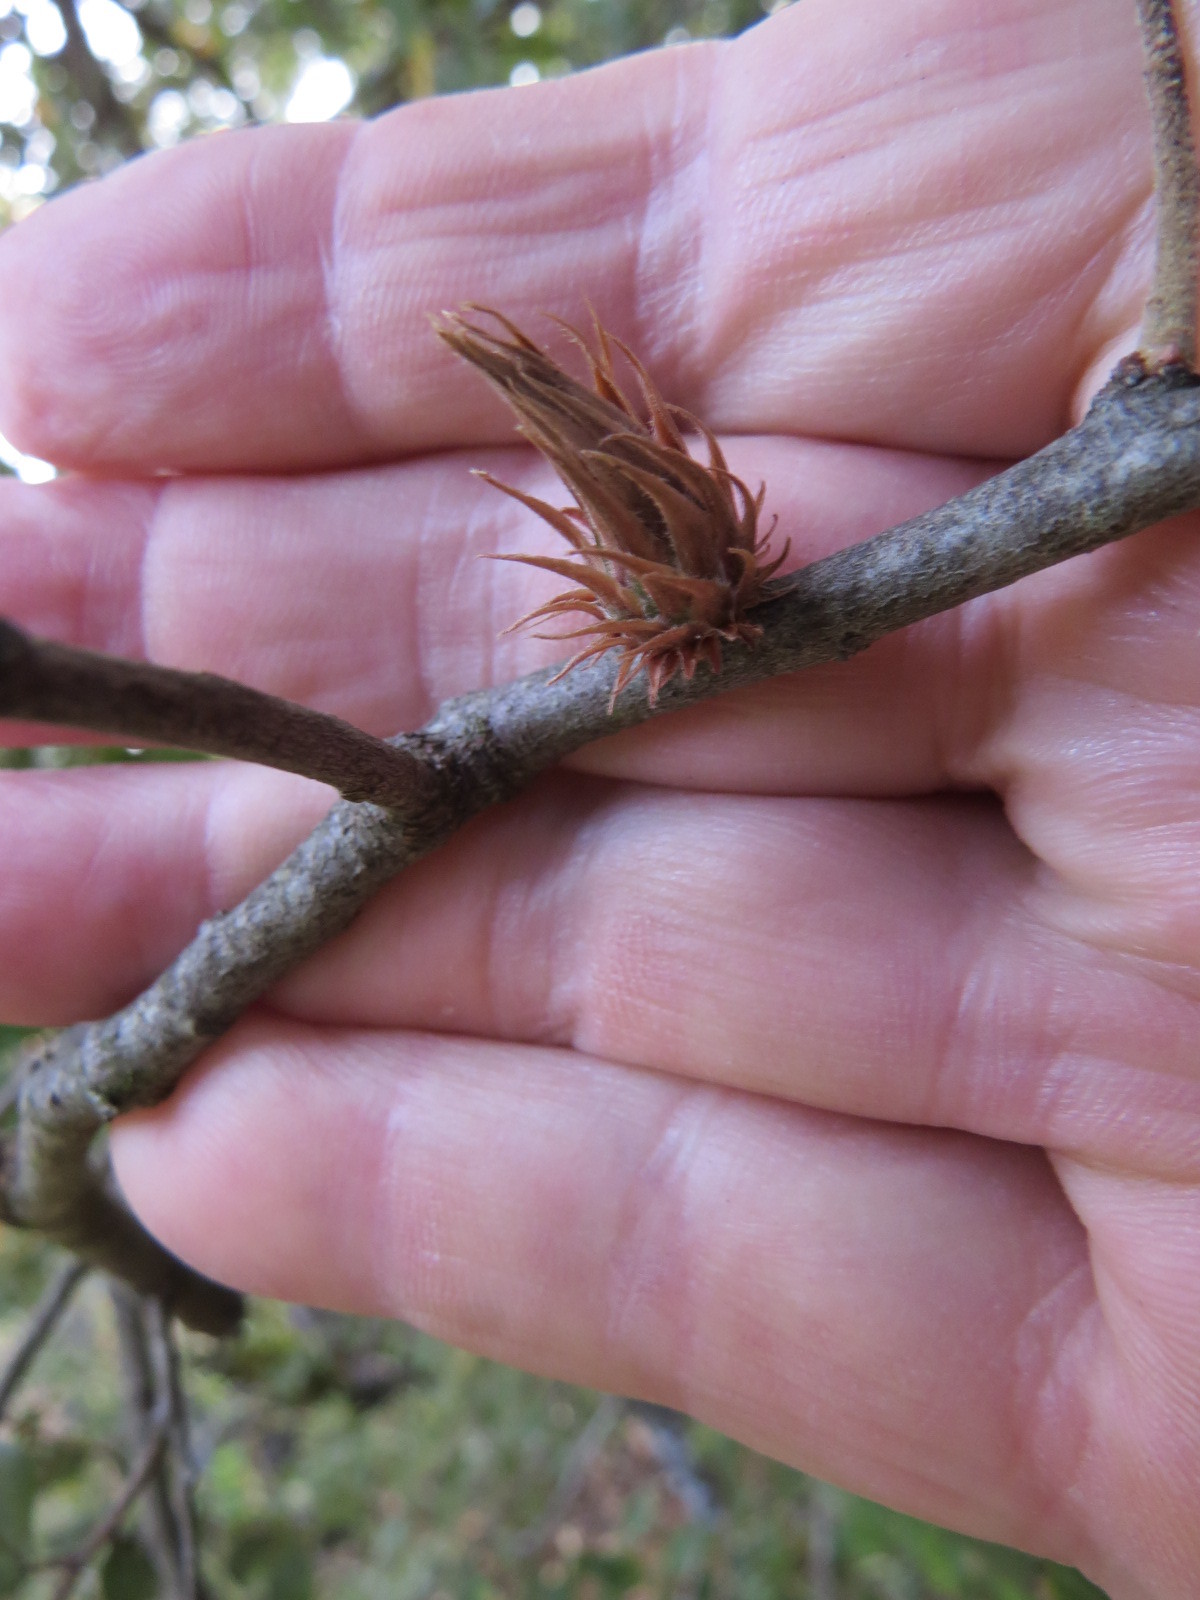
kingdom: Animalia
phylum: Arthropoda
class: Insecta
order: Hymenoptera
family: Cynipidae
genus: Andricus
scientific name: Andricus
